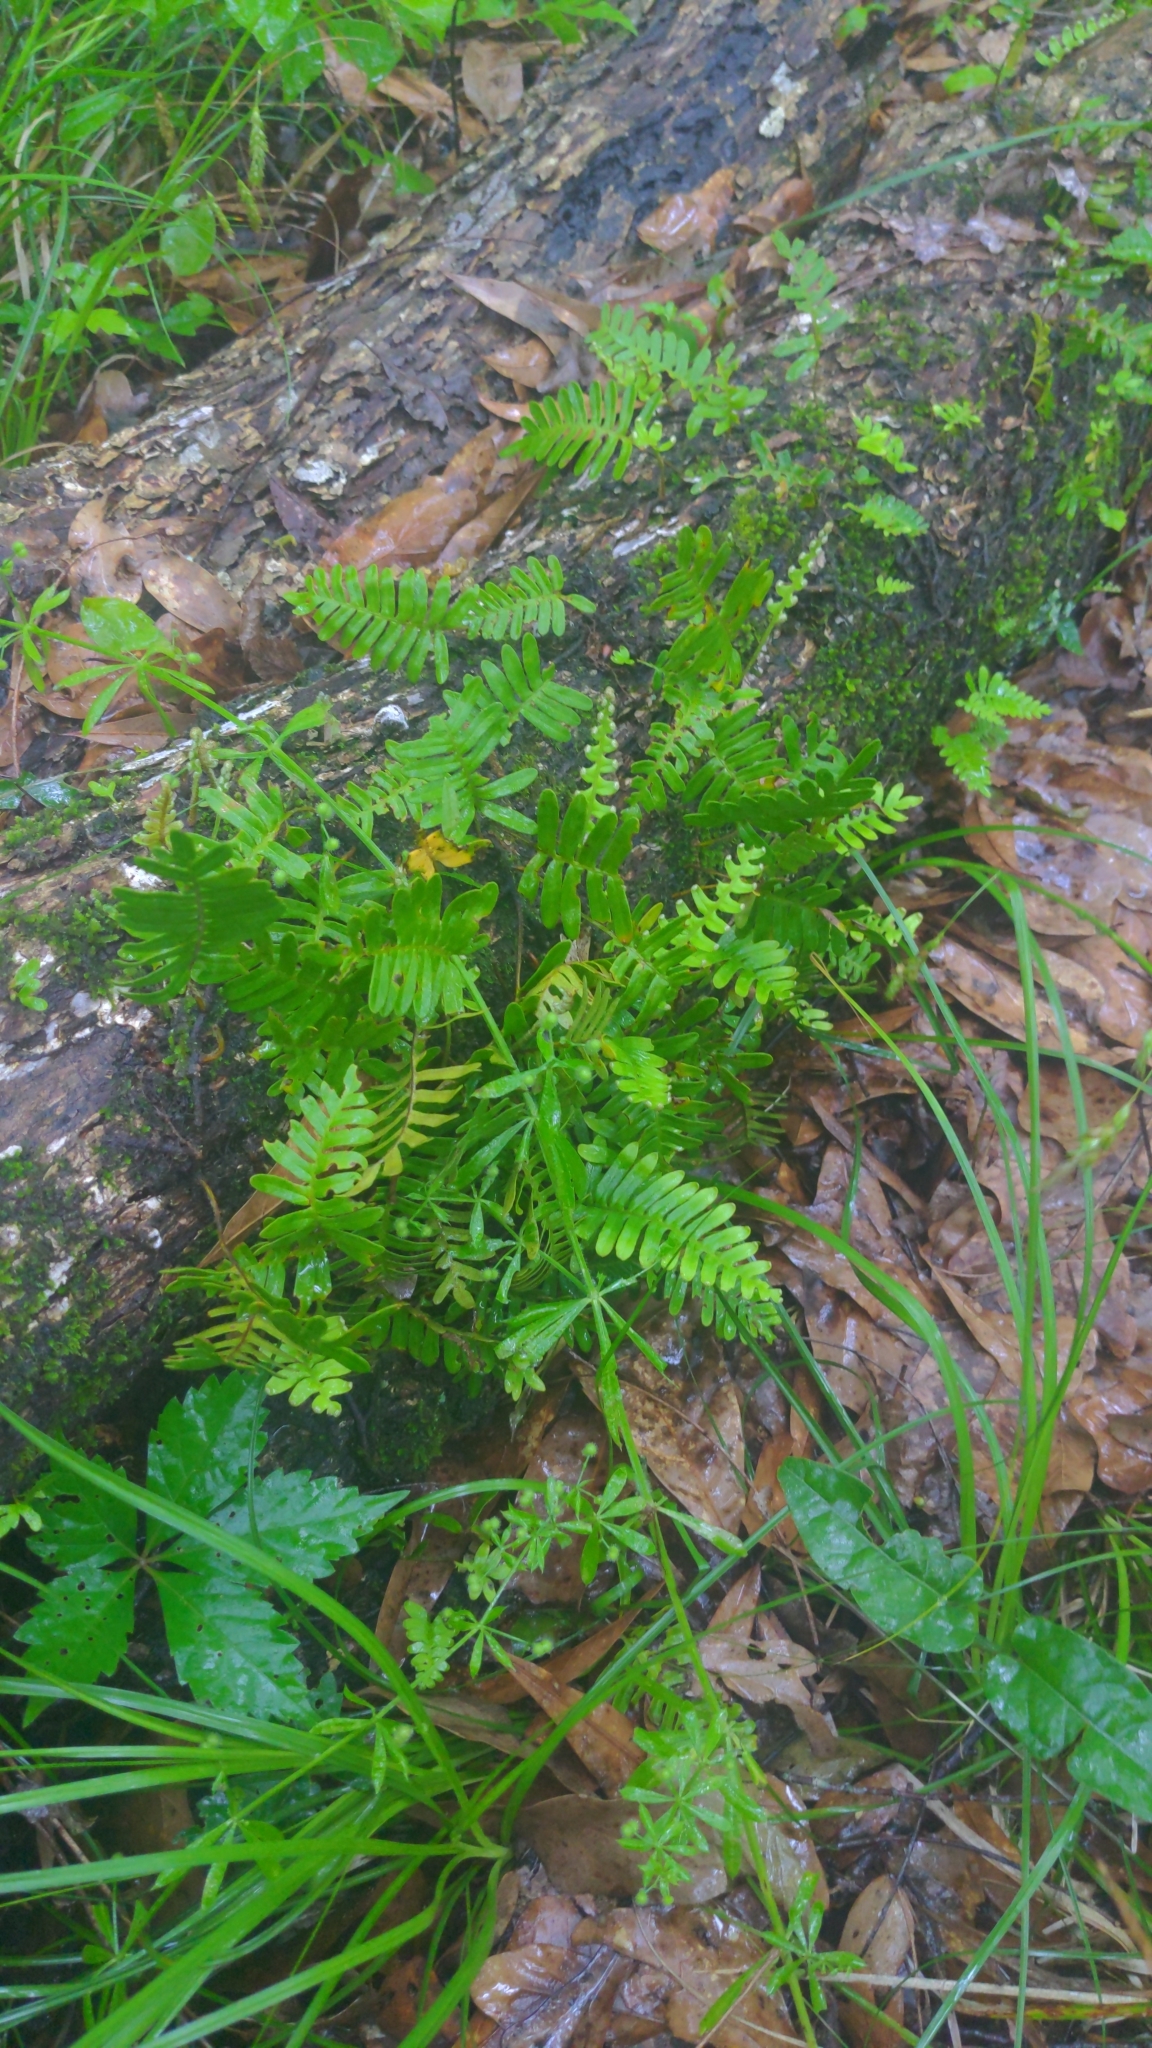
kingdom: Plantae
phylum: Tracheophyta
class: Polypodiopsida
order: Polypodiales
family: Polypodiaceae
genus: Pleopeltis
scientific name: Pleopeltis michauxiana
